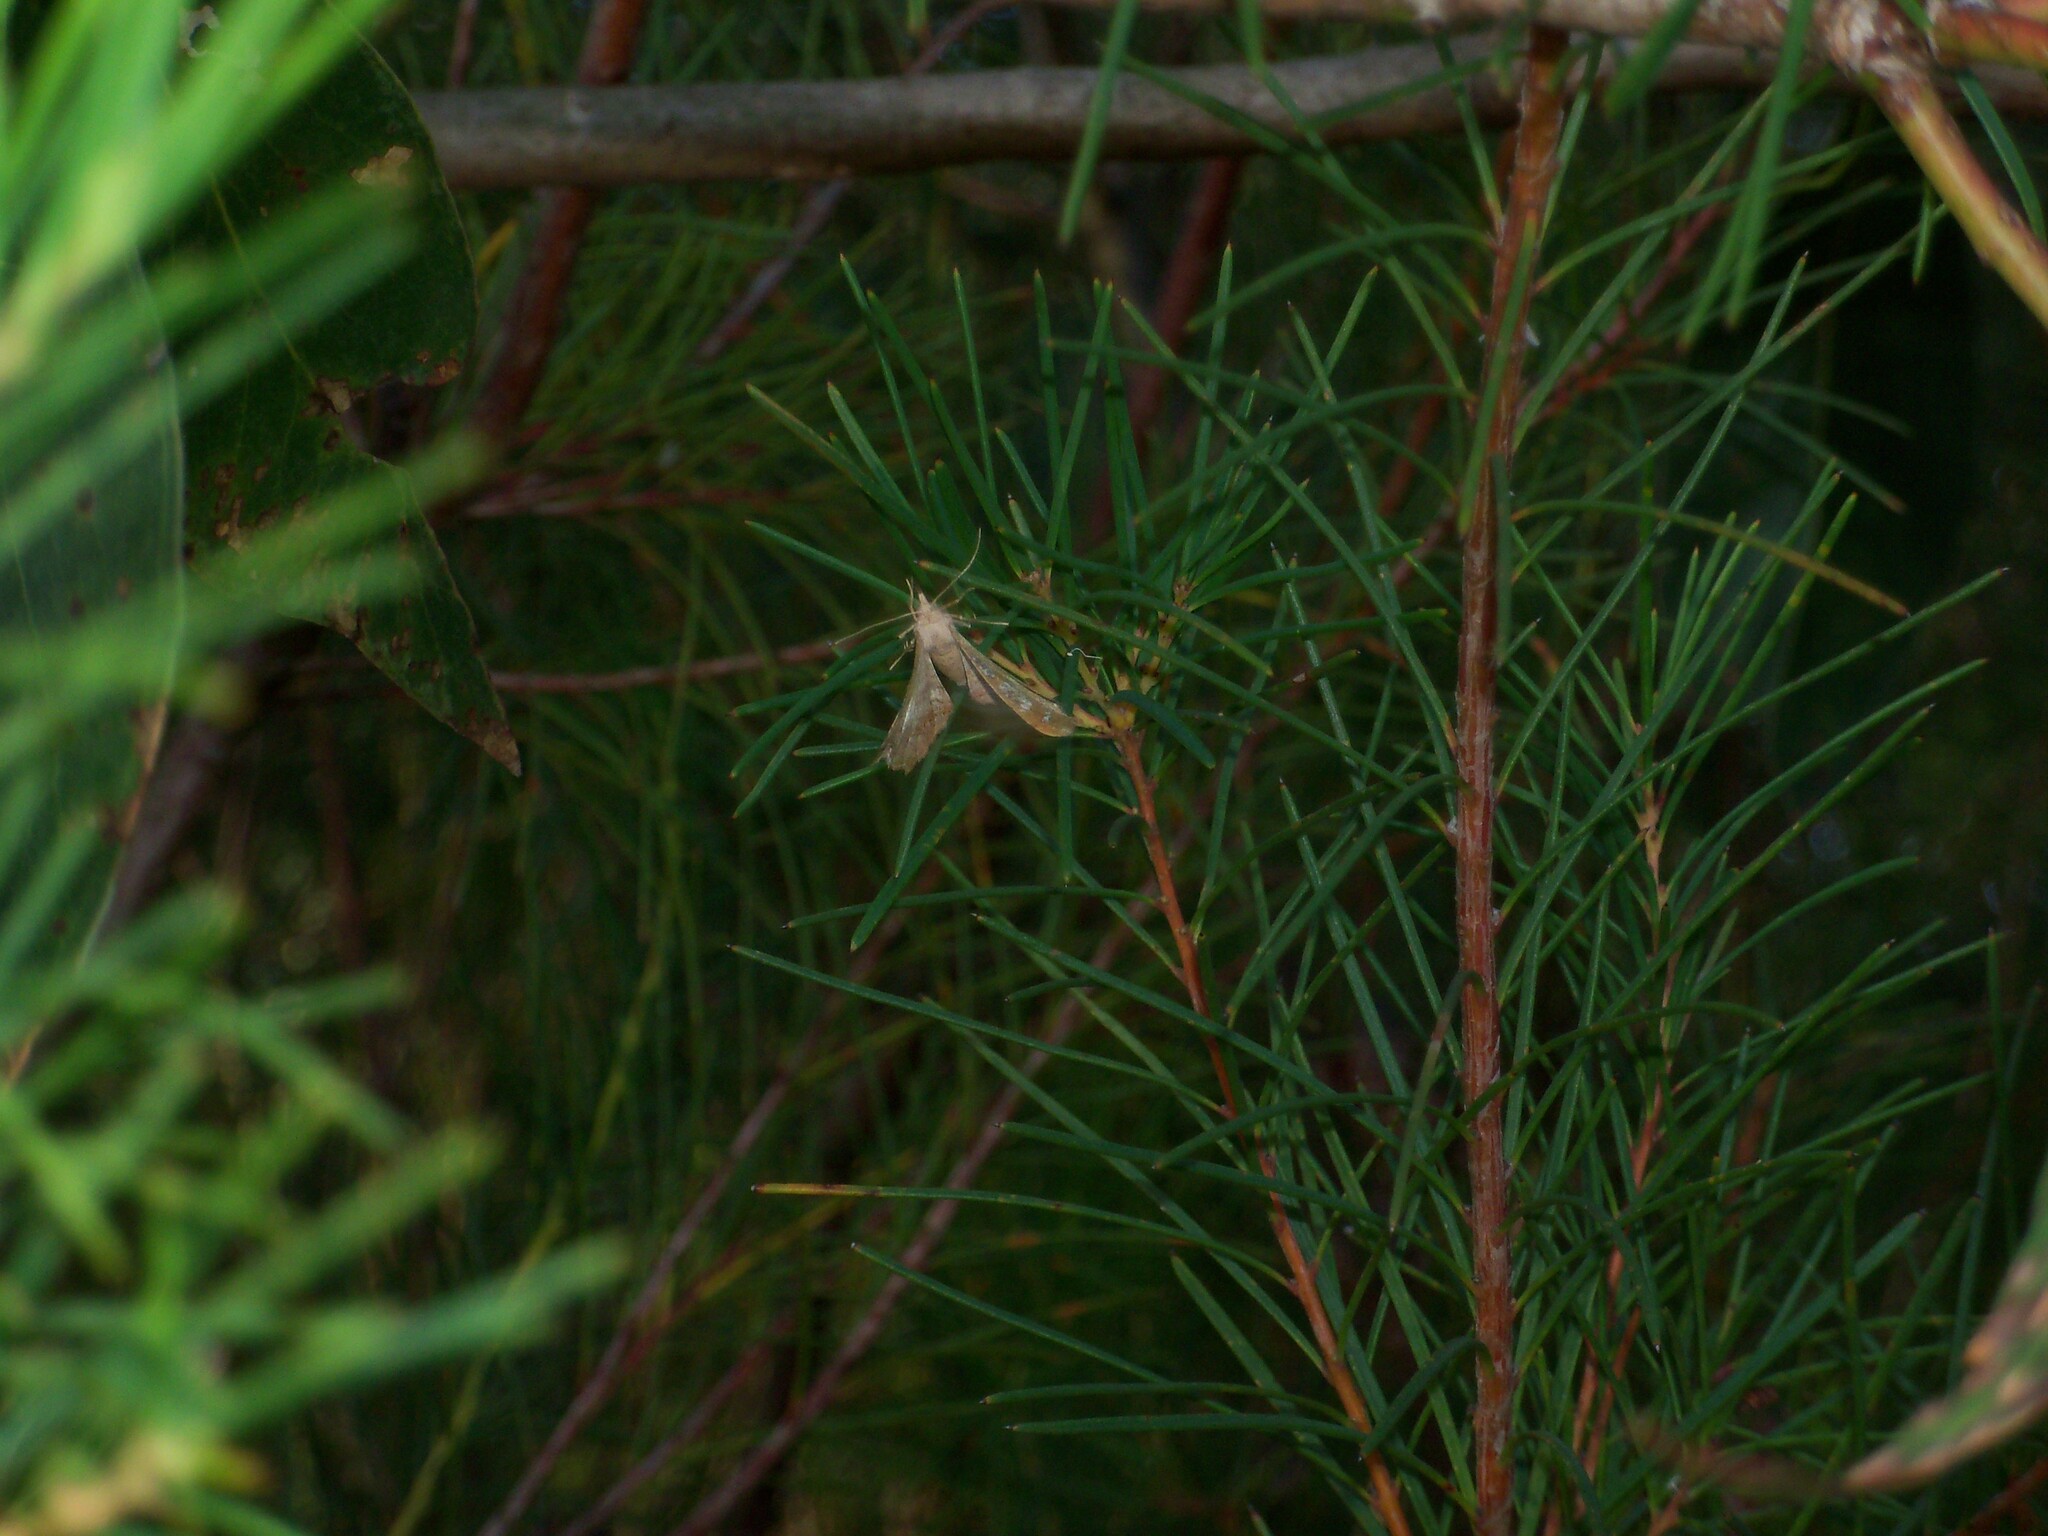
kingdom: Animalia
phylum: Arthropoda
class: Insecta
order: Lepidoptera
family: Geometridae
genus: Dissomorphia
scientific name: Dissomorphia australiaria
